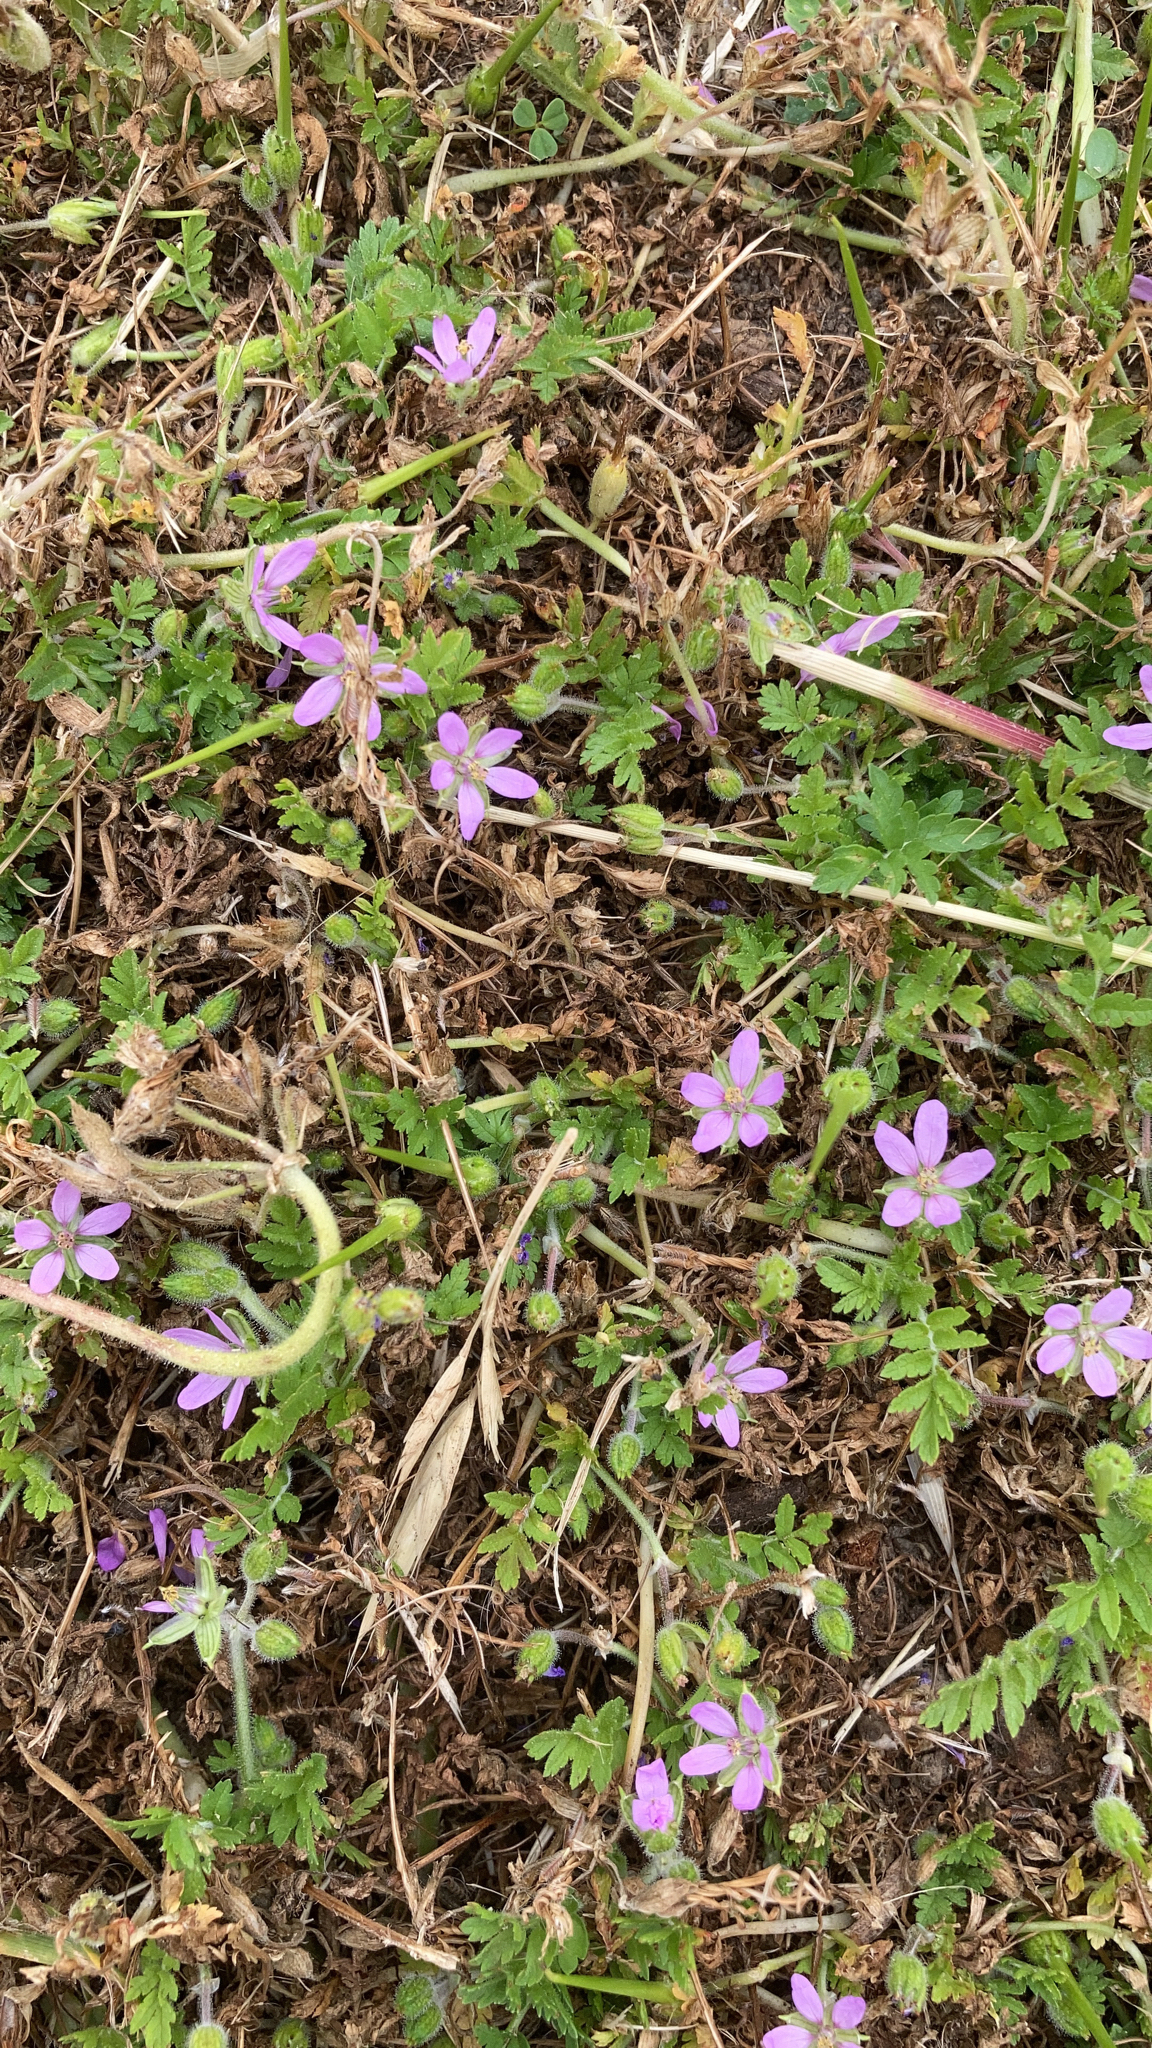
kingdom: Plantae
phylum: Tracheophyta
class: Magnoliopsida
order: Geraniales
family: Geraniaceae
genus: Erodium
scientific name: Erodium moschatum
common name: Musk stork's-bill
